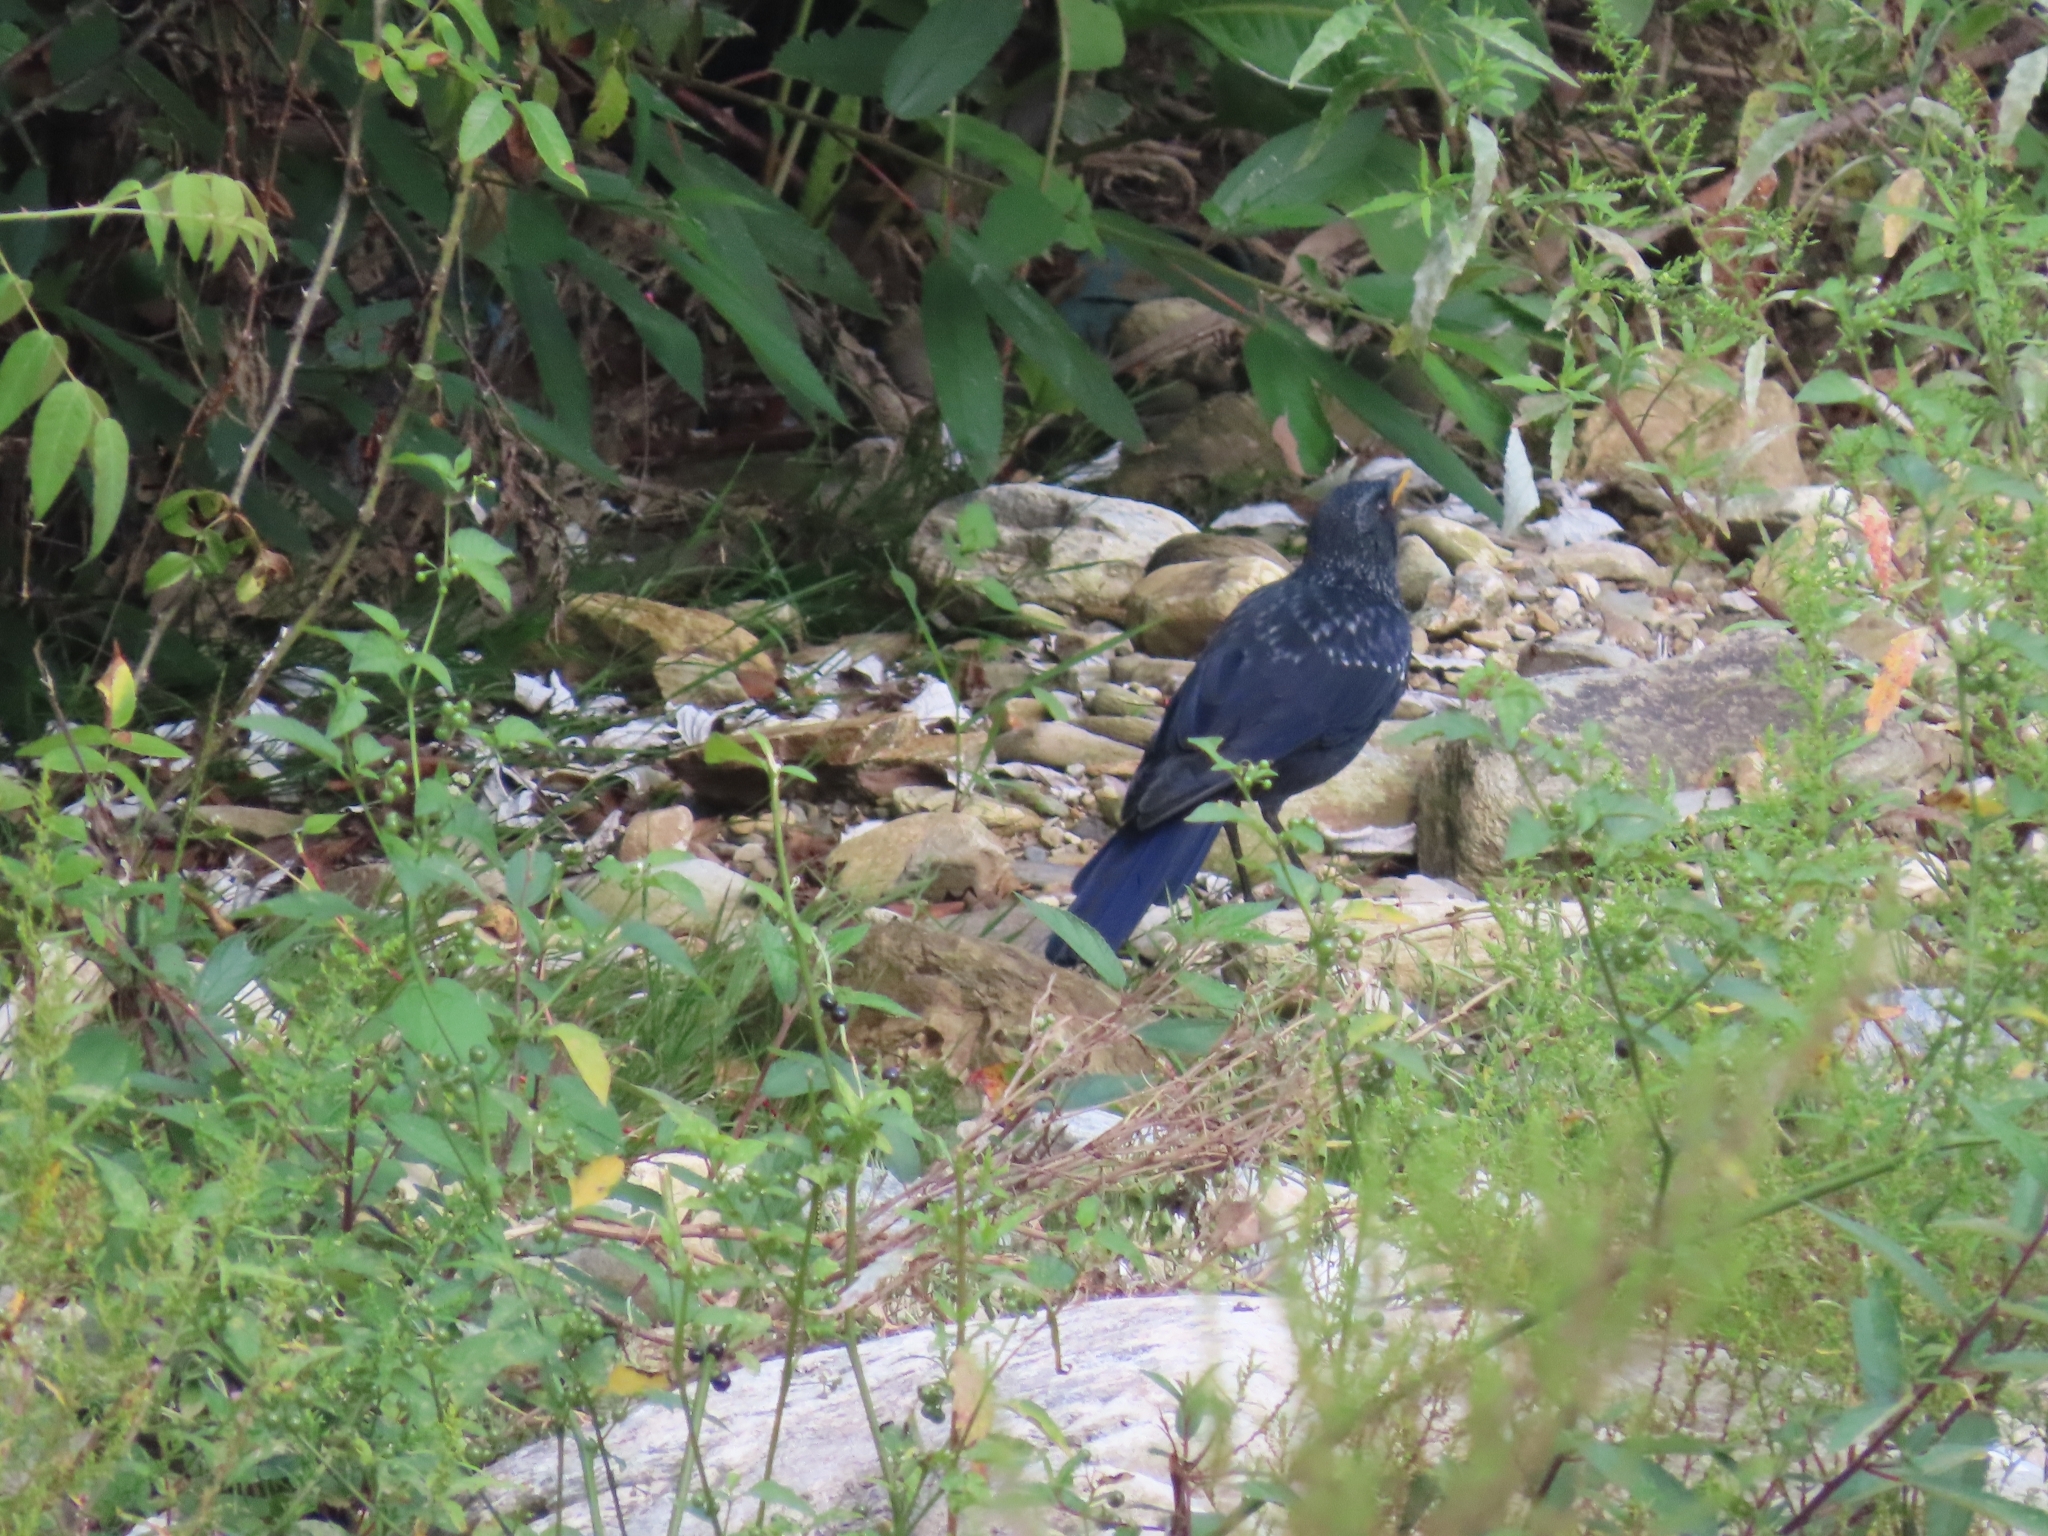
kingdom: Animalia
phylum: Chordata
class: Aves
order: Passeriformes
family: Muscicapidae
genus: Myophonus
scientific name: Myophonus caeruleus
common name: Blue whistling-thrush
